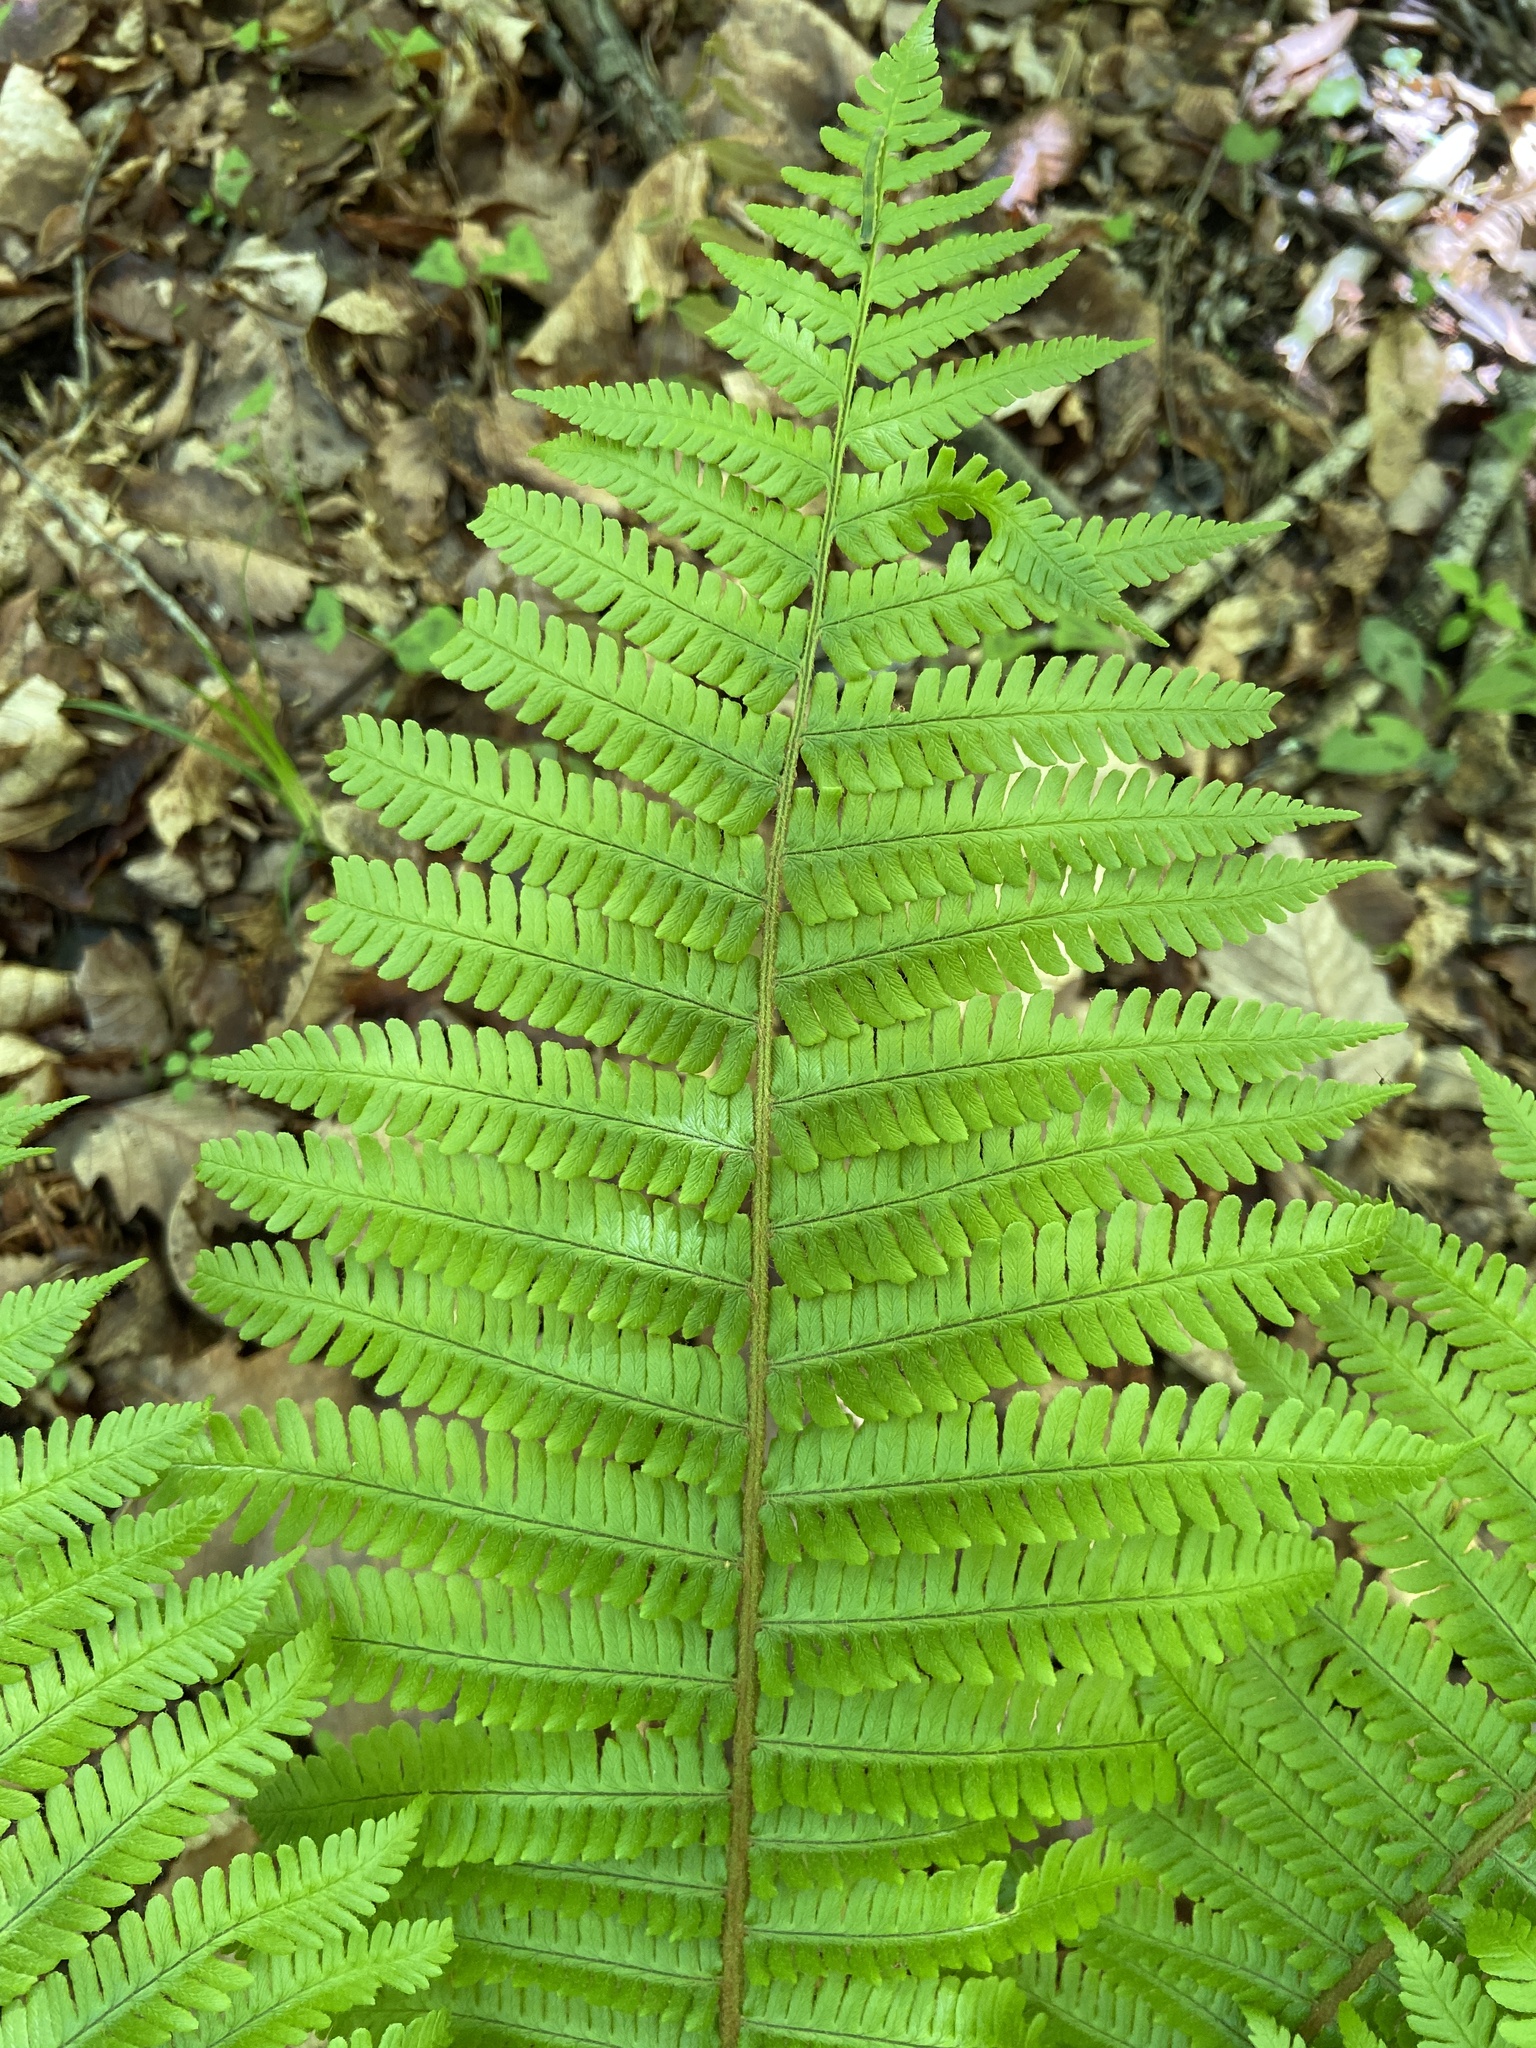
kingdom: Plantae
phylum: Tracheophyta
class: Polypodiopsida
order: Polypodiales
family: Dryopteridaceae
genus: Dryopteris
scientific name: Dryopteris crassirhizoma
